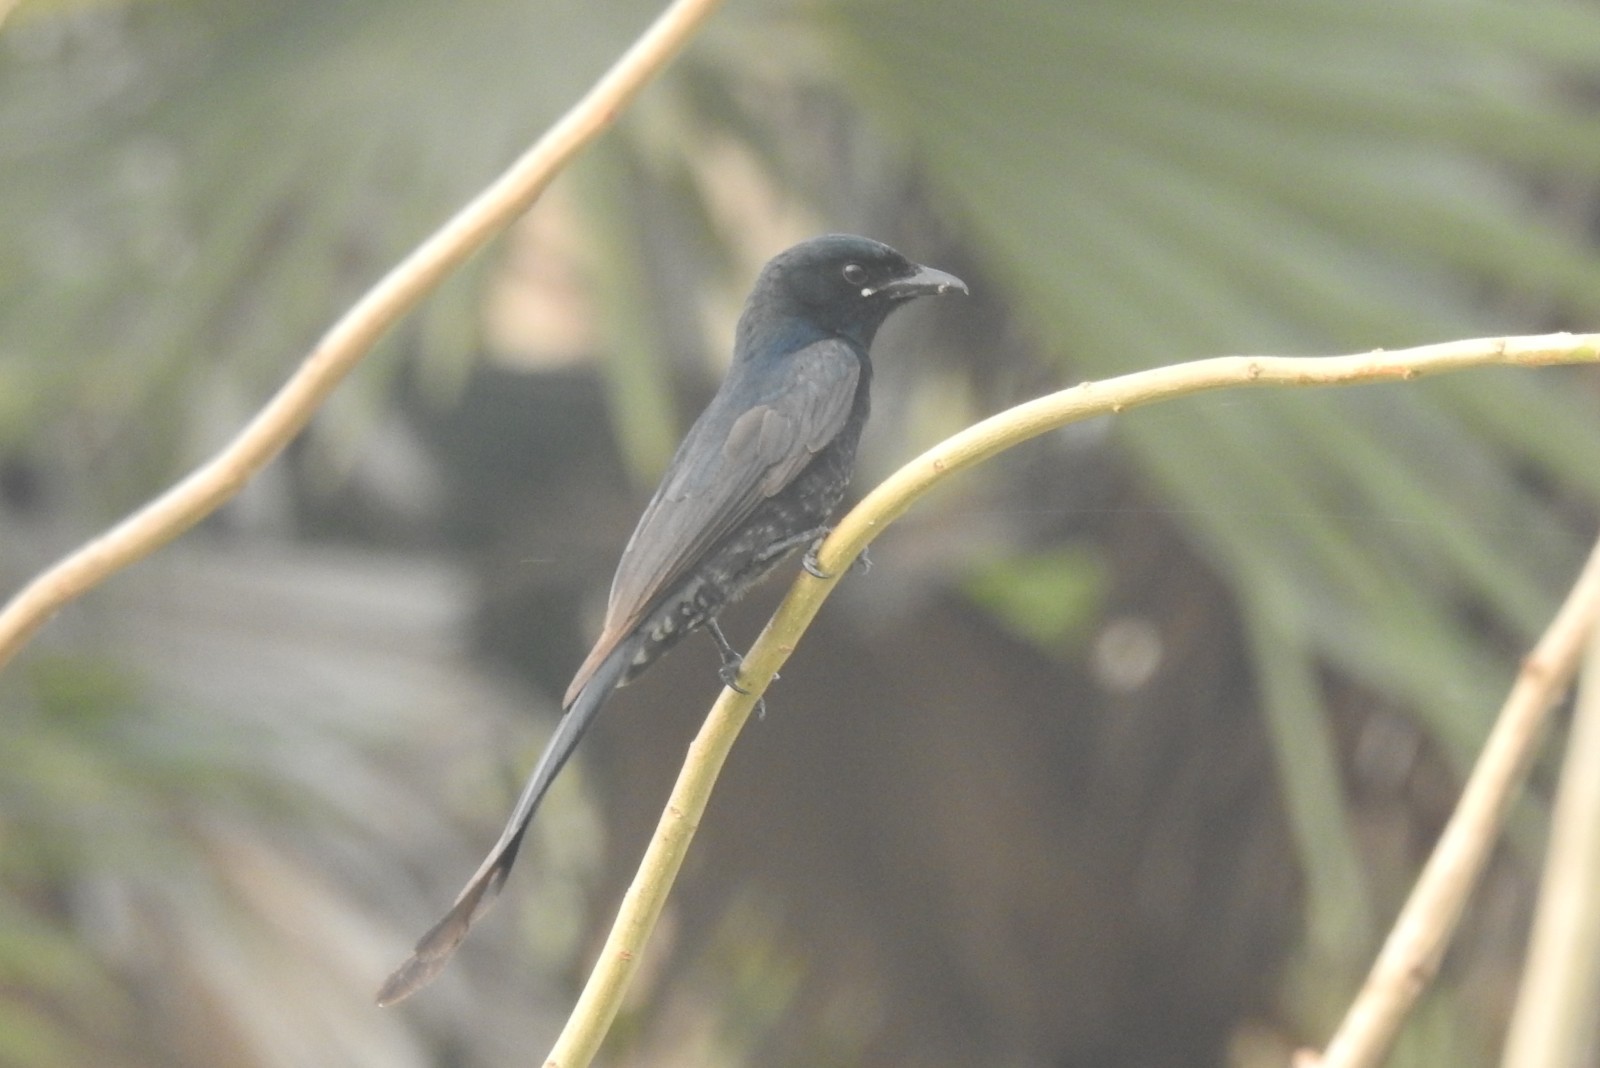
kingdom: Animalia
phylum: Chordata
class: Aves
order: Passeriformes
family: Dicruridae
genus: Dicrurus
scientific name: Dicrurus macrocercus
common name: Black drongo
